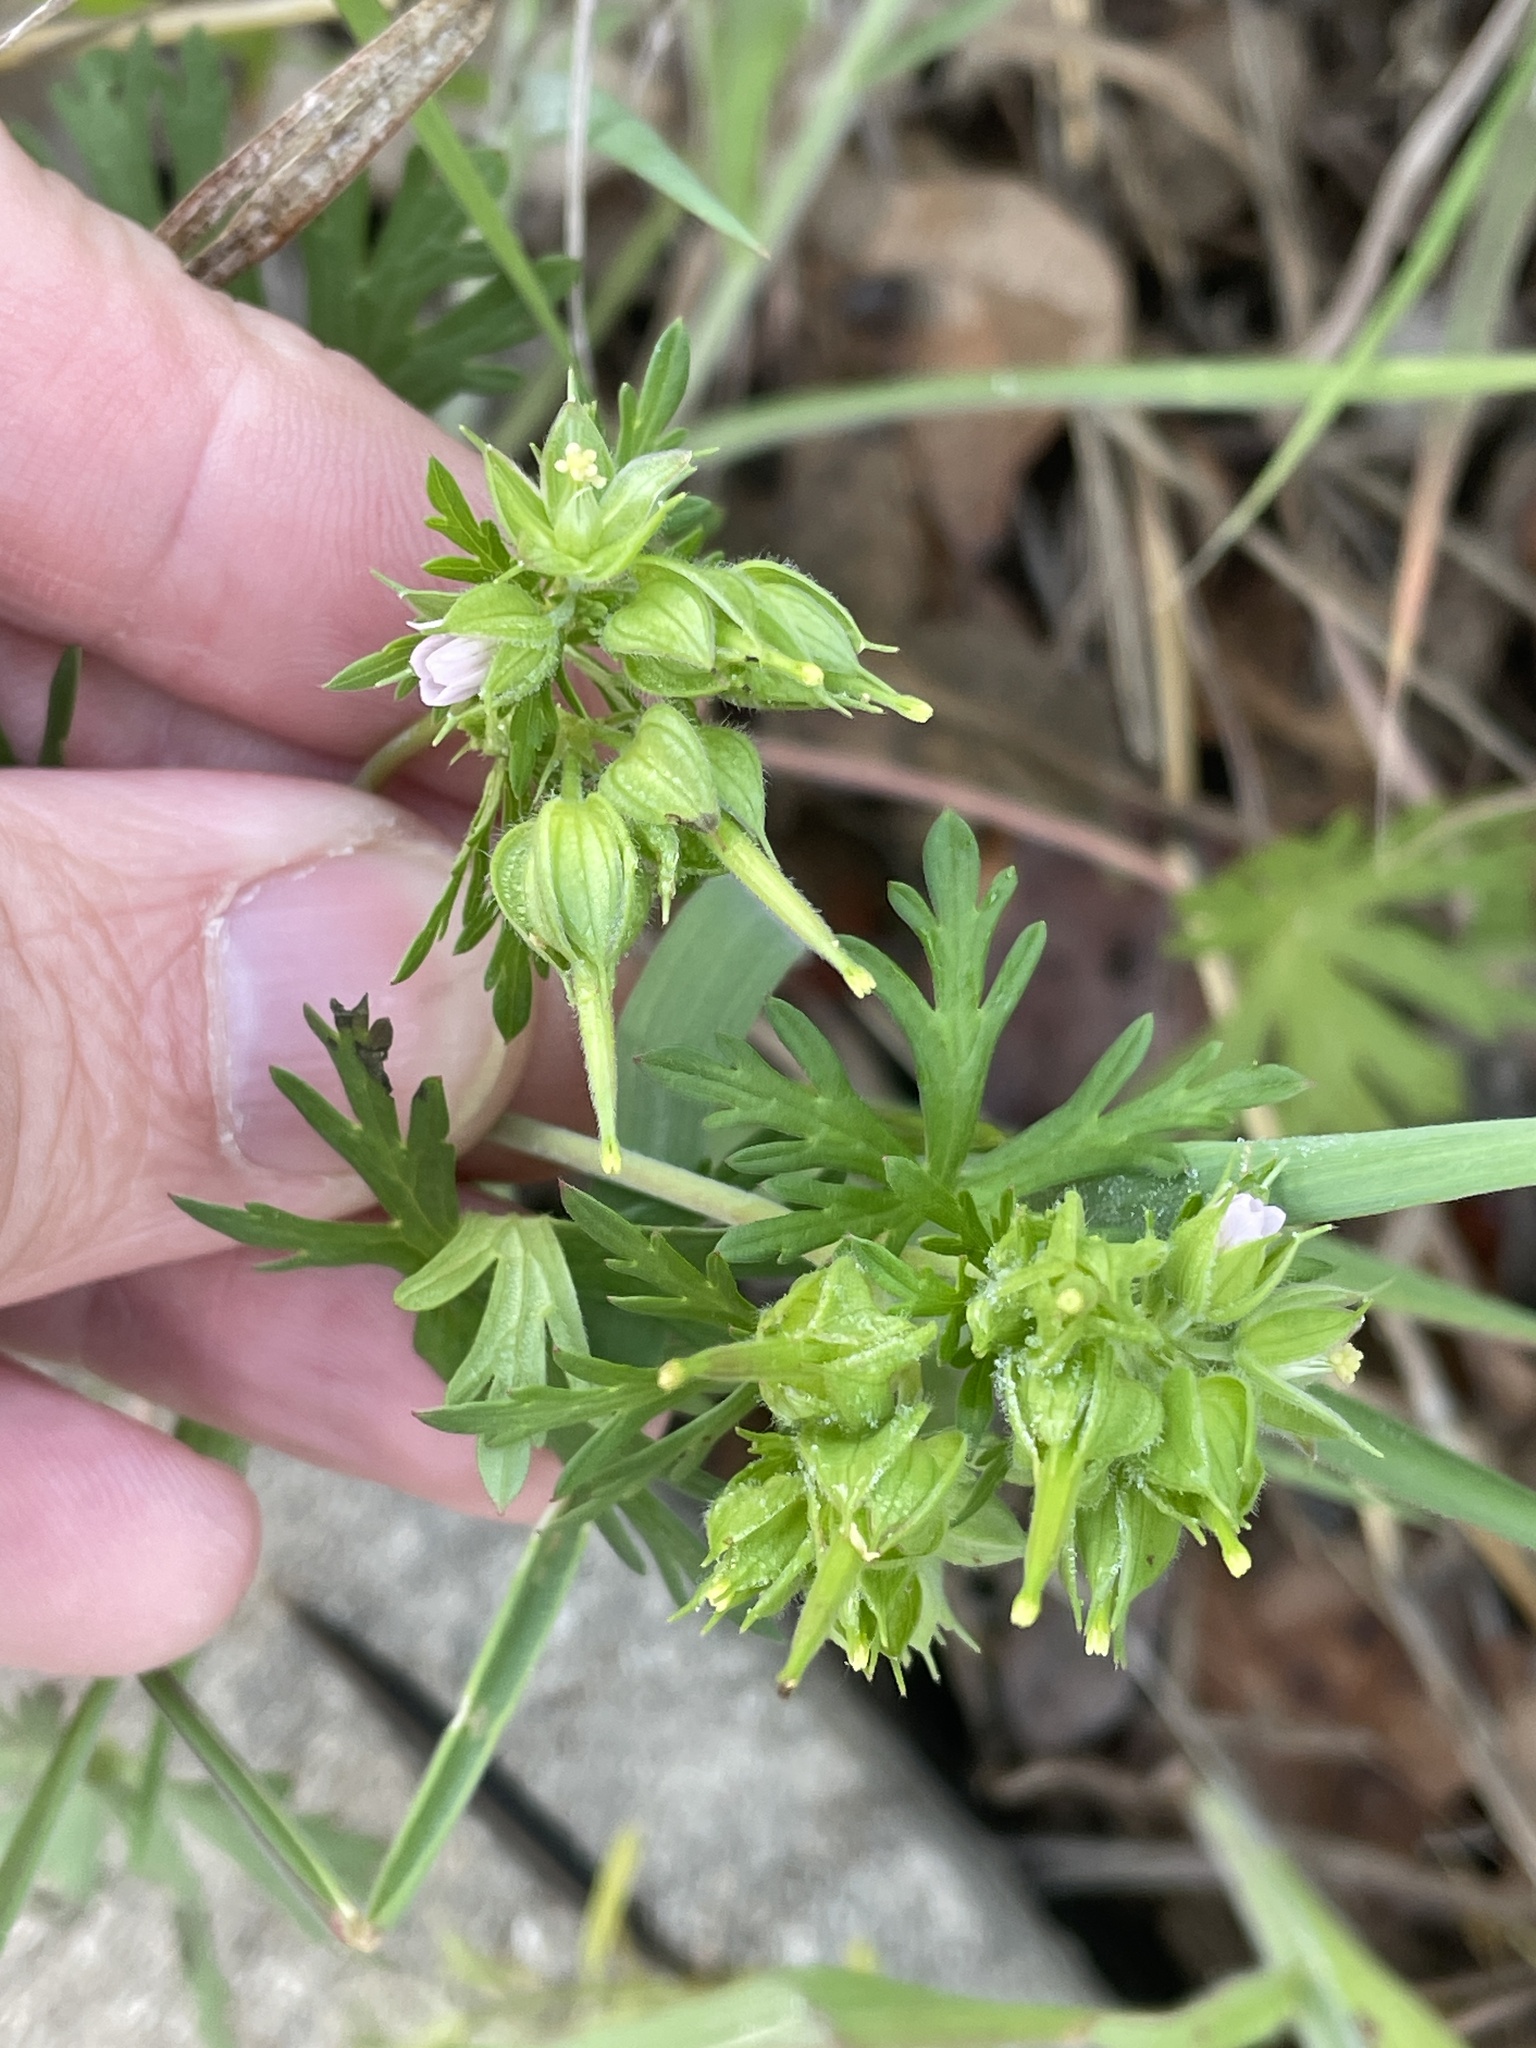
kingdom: Plantae
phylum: Tracheophyta
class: Magnoliopsida
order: Geraniales
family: Geraniaceae
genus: Geranium
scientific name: Geranium carolinianum
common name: Carolina crane's-bill
